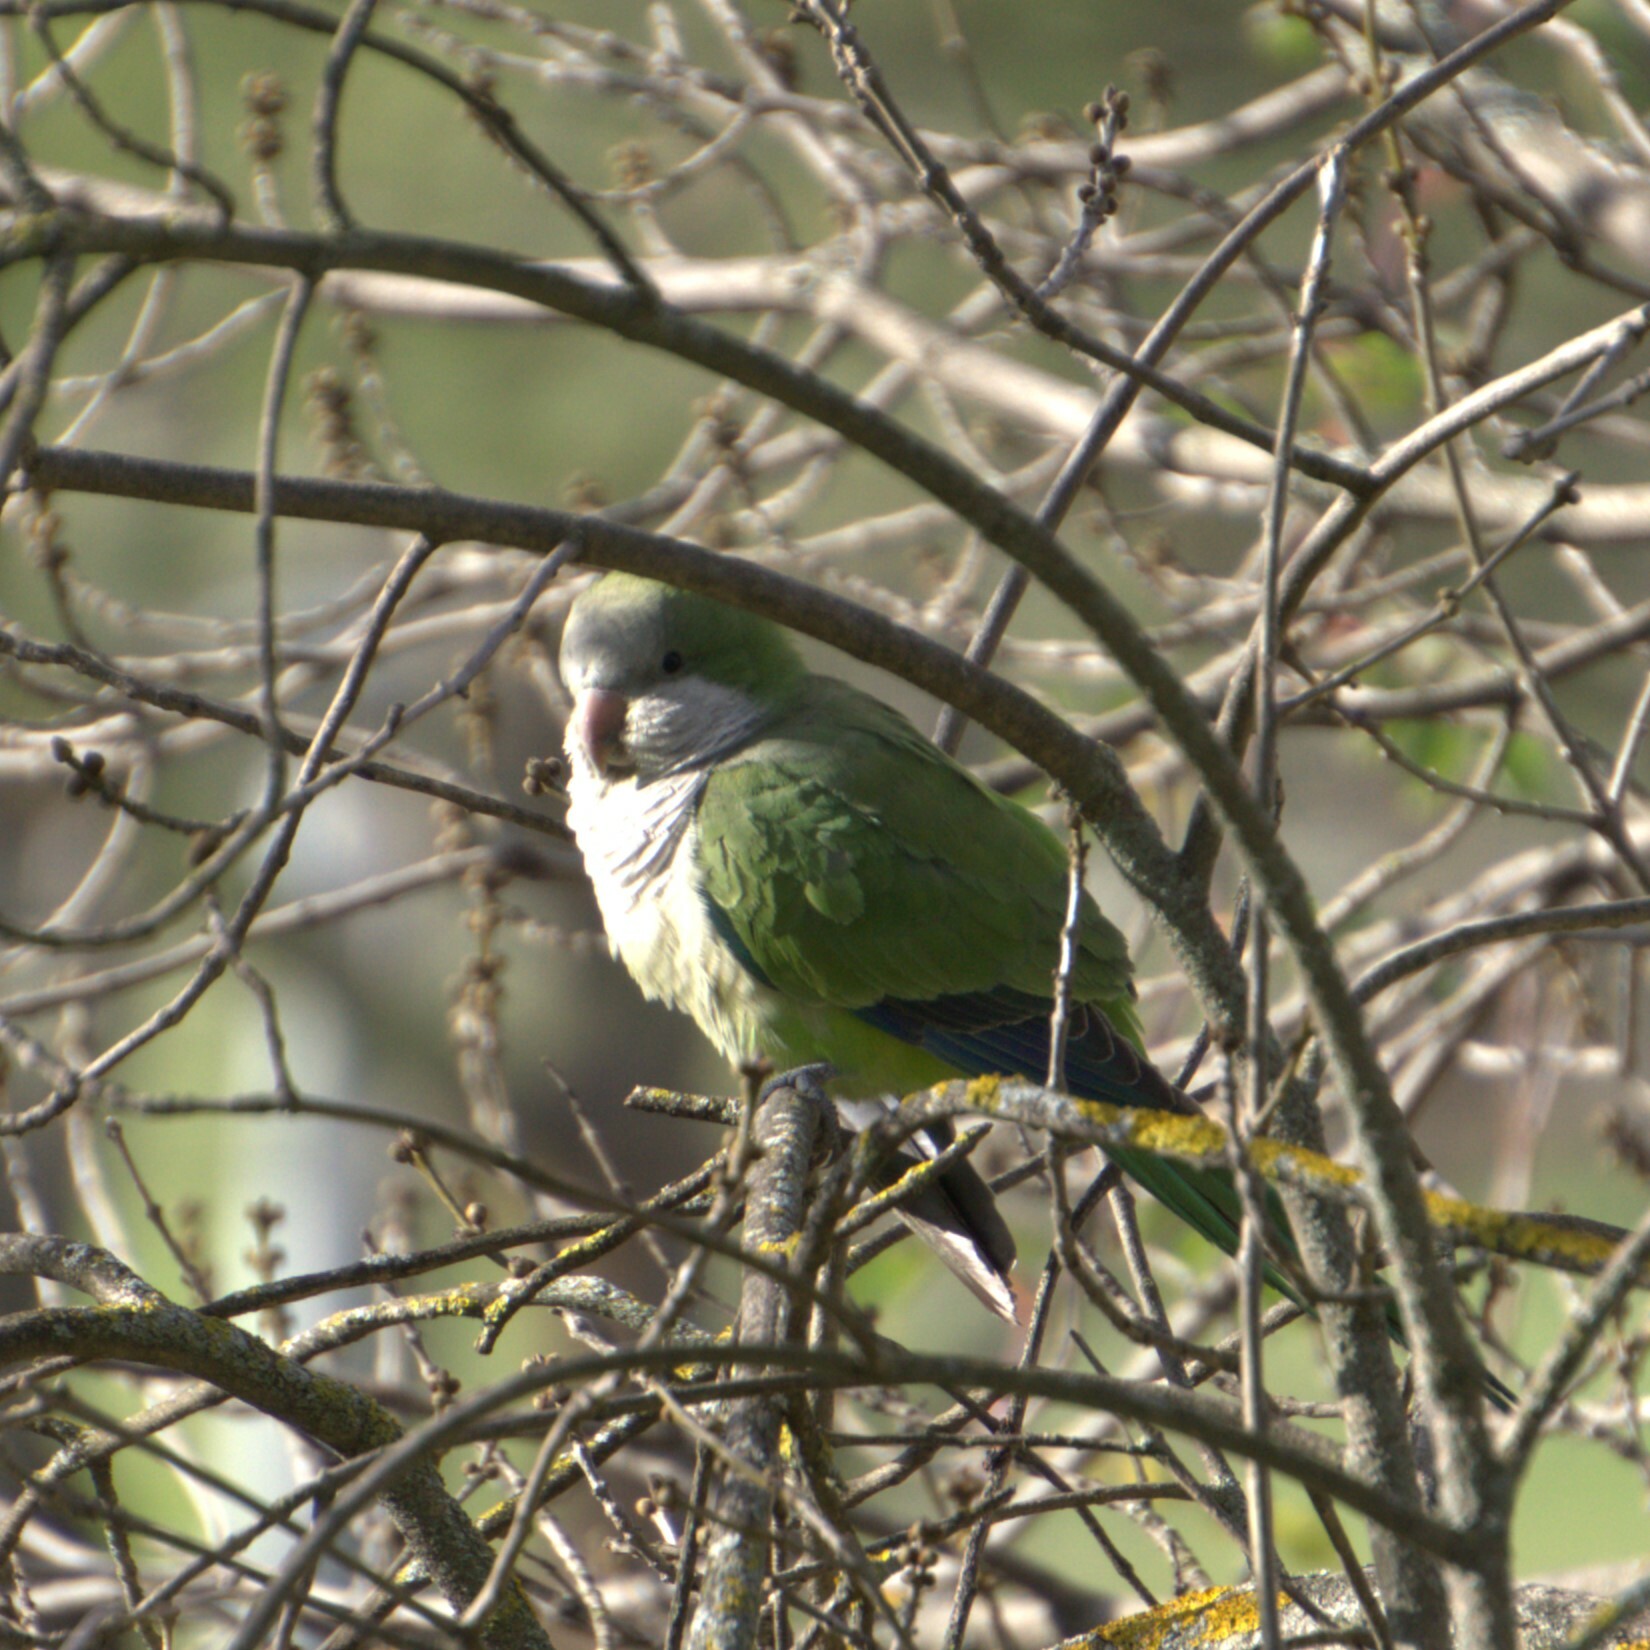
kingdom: Animalia
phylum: Chordata
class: Aves
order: Psittaciformes
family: Psittacidae
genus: Myiopsitta
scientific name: Myiopsitta monachus
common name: Monk parakeet
